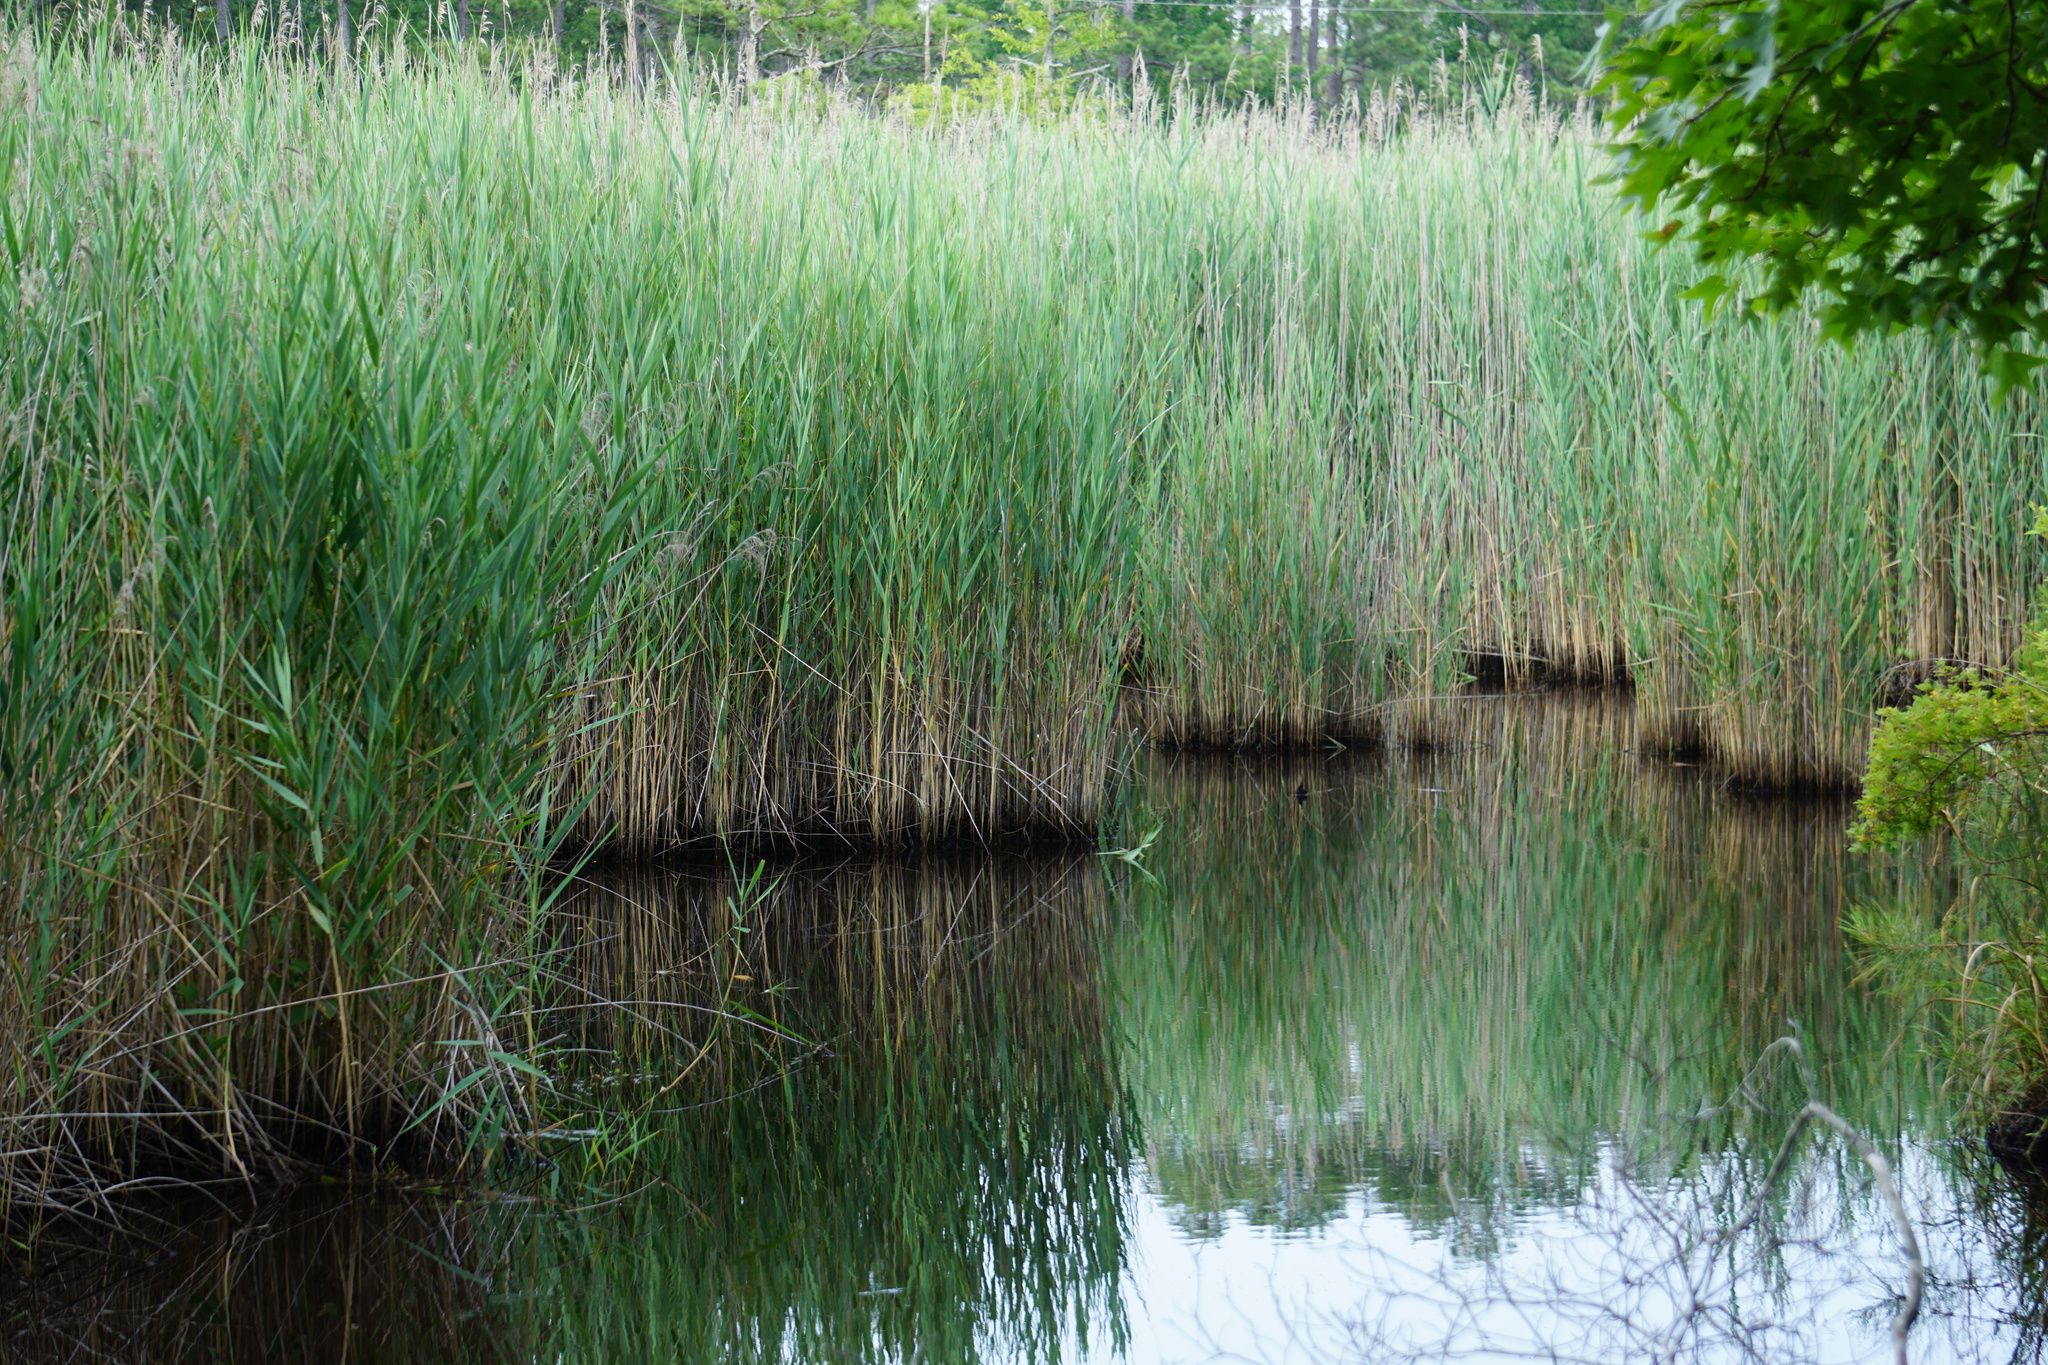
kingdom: Plantae
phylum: Tracheophyta
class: Liliopsida
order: Poales
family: Poaceae
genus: Phragmites
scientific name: Phragmites australis
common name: Common reed
